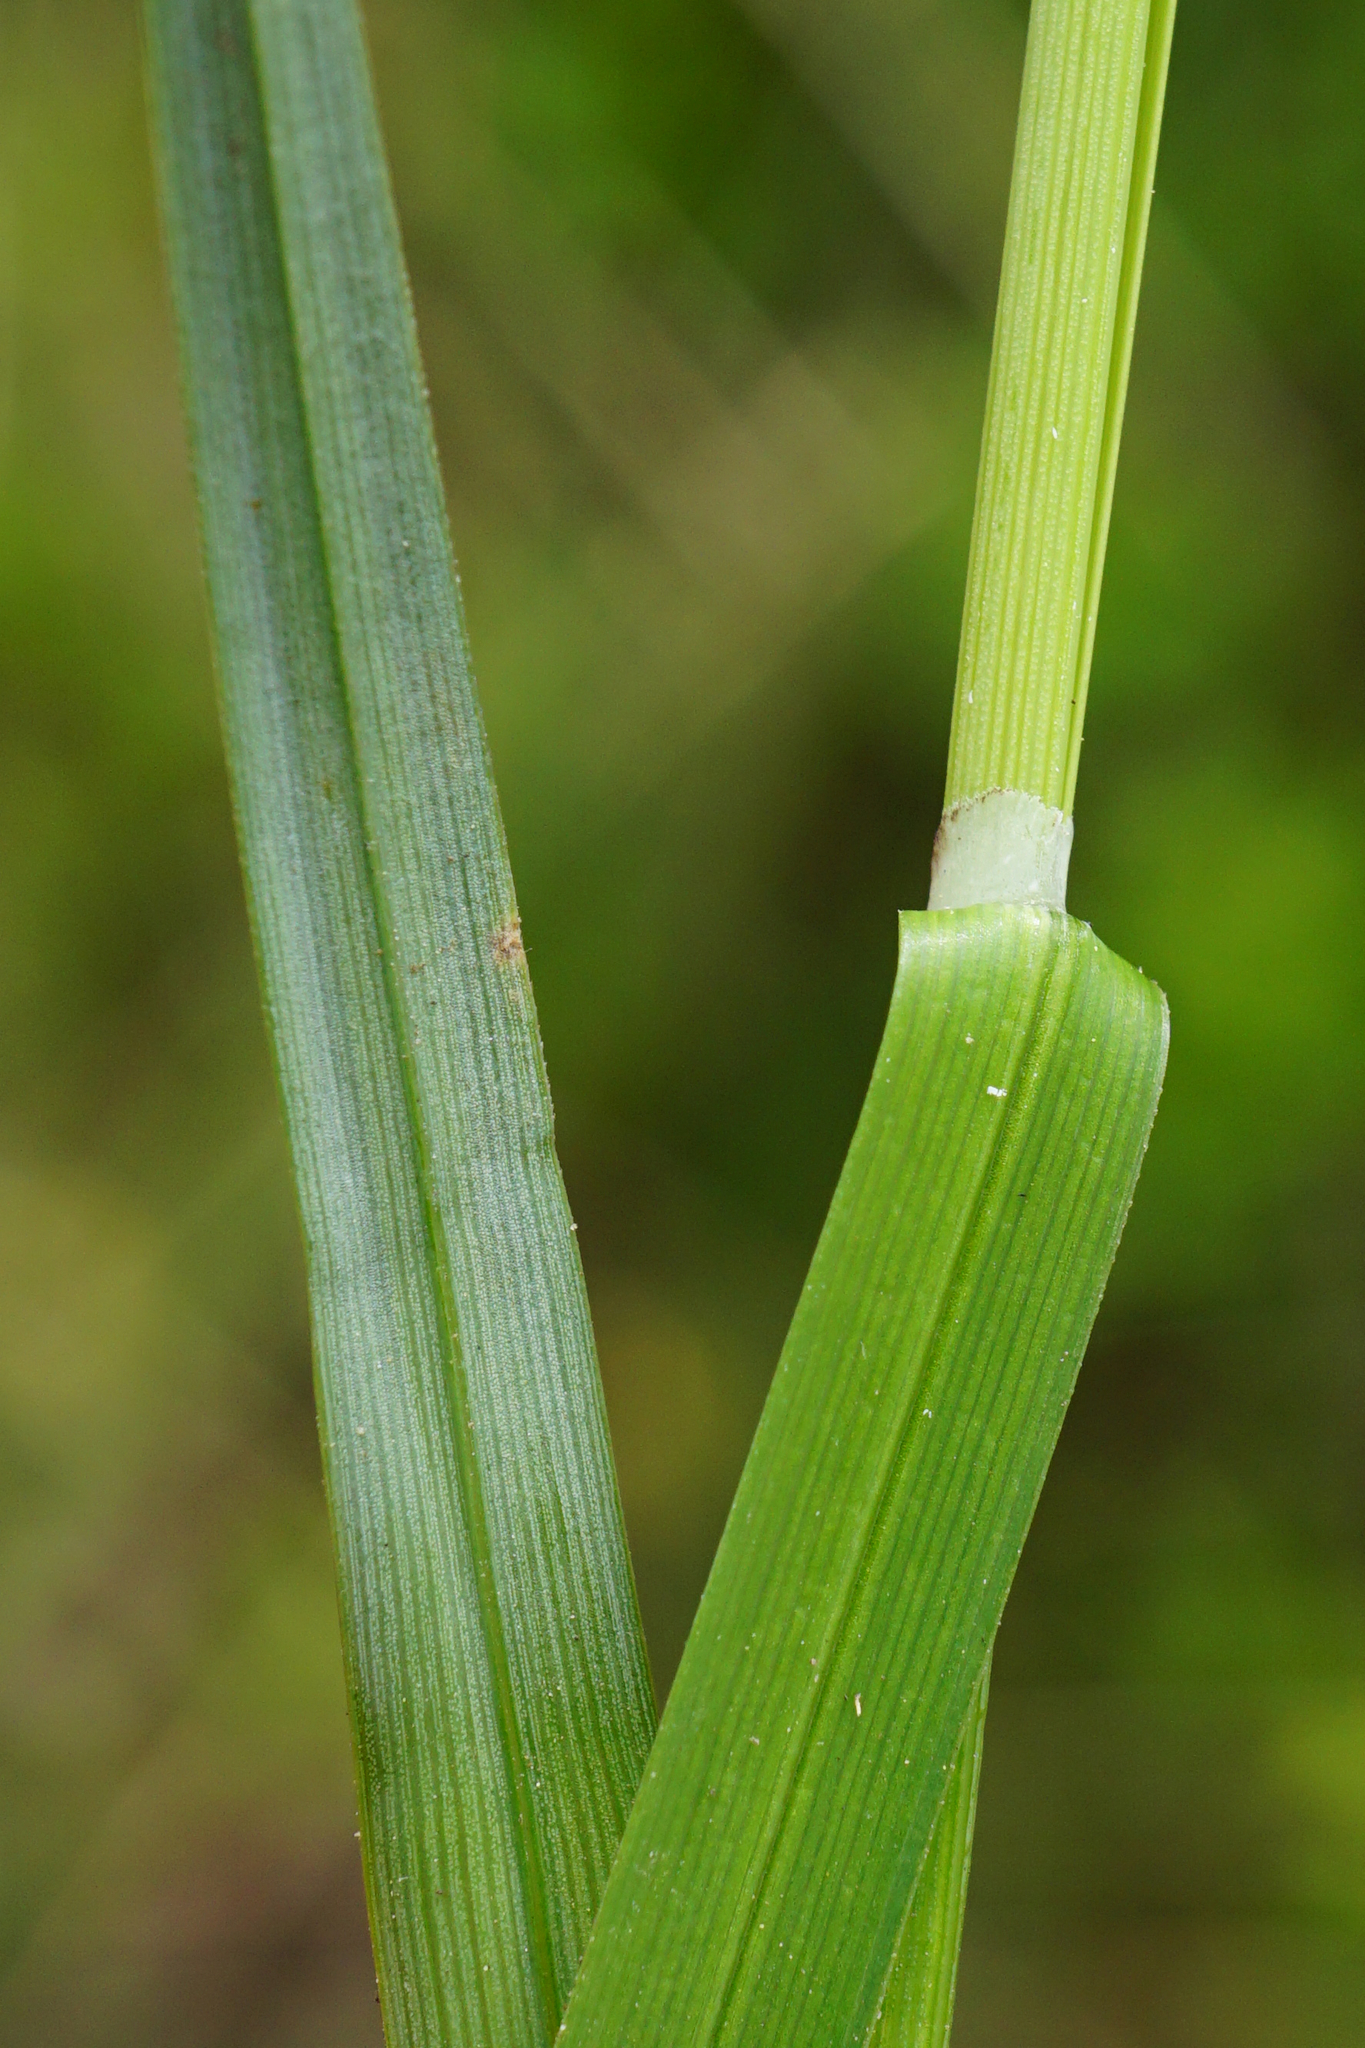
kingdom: Plantae
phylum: Tracheophyta
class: Liliopsida
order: Poales
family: Cyperaceae
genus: Carex
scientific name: Carex flacca
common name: Glaucous sedge
